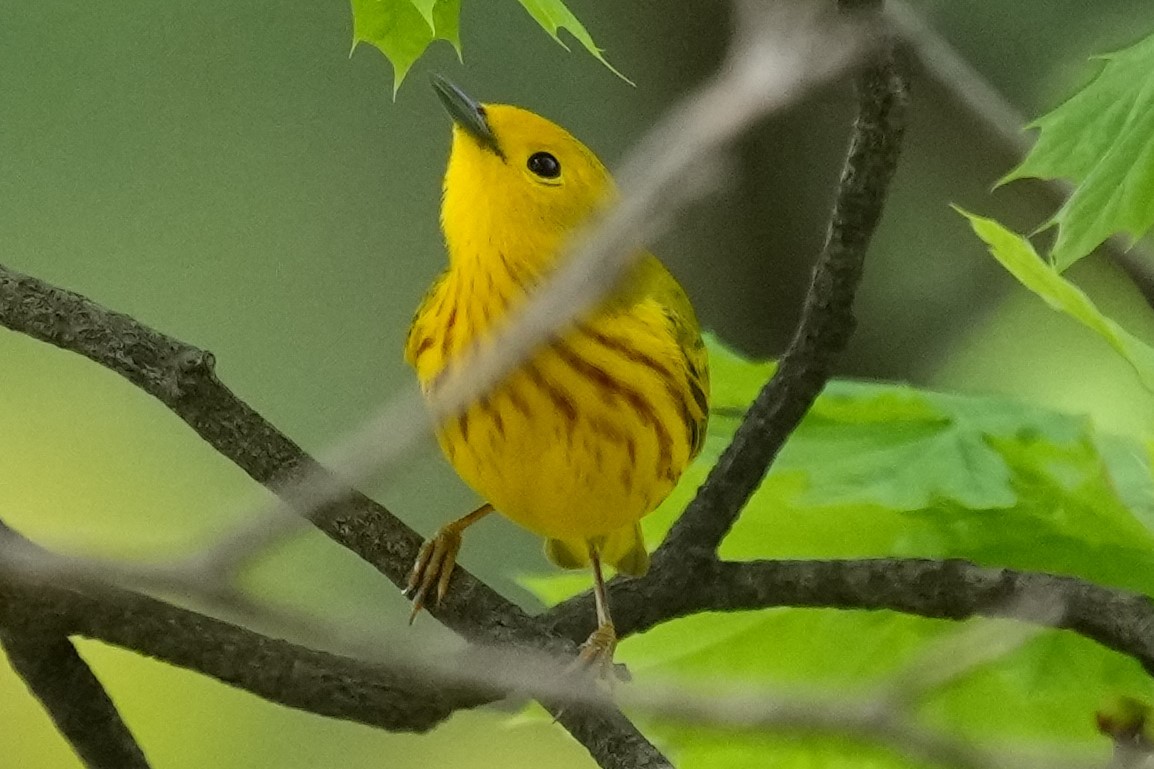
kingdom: Animalia
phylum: Chordata
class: Aves
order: Passeriformes
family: Parulidae
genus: Setophaga
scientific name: Setophaga petechia
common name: Yellow warbler
